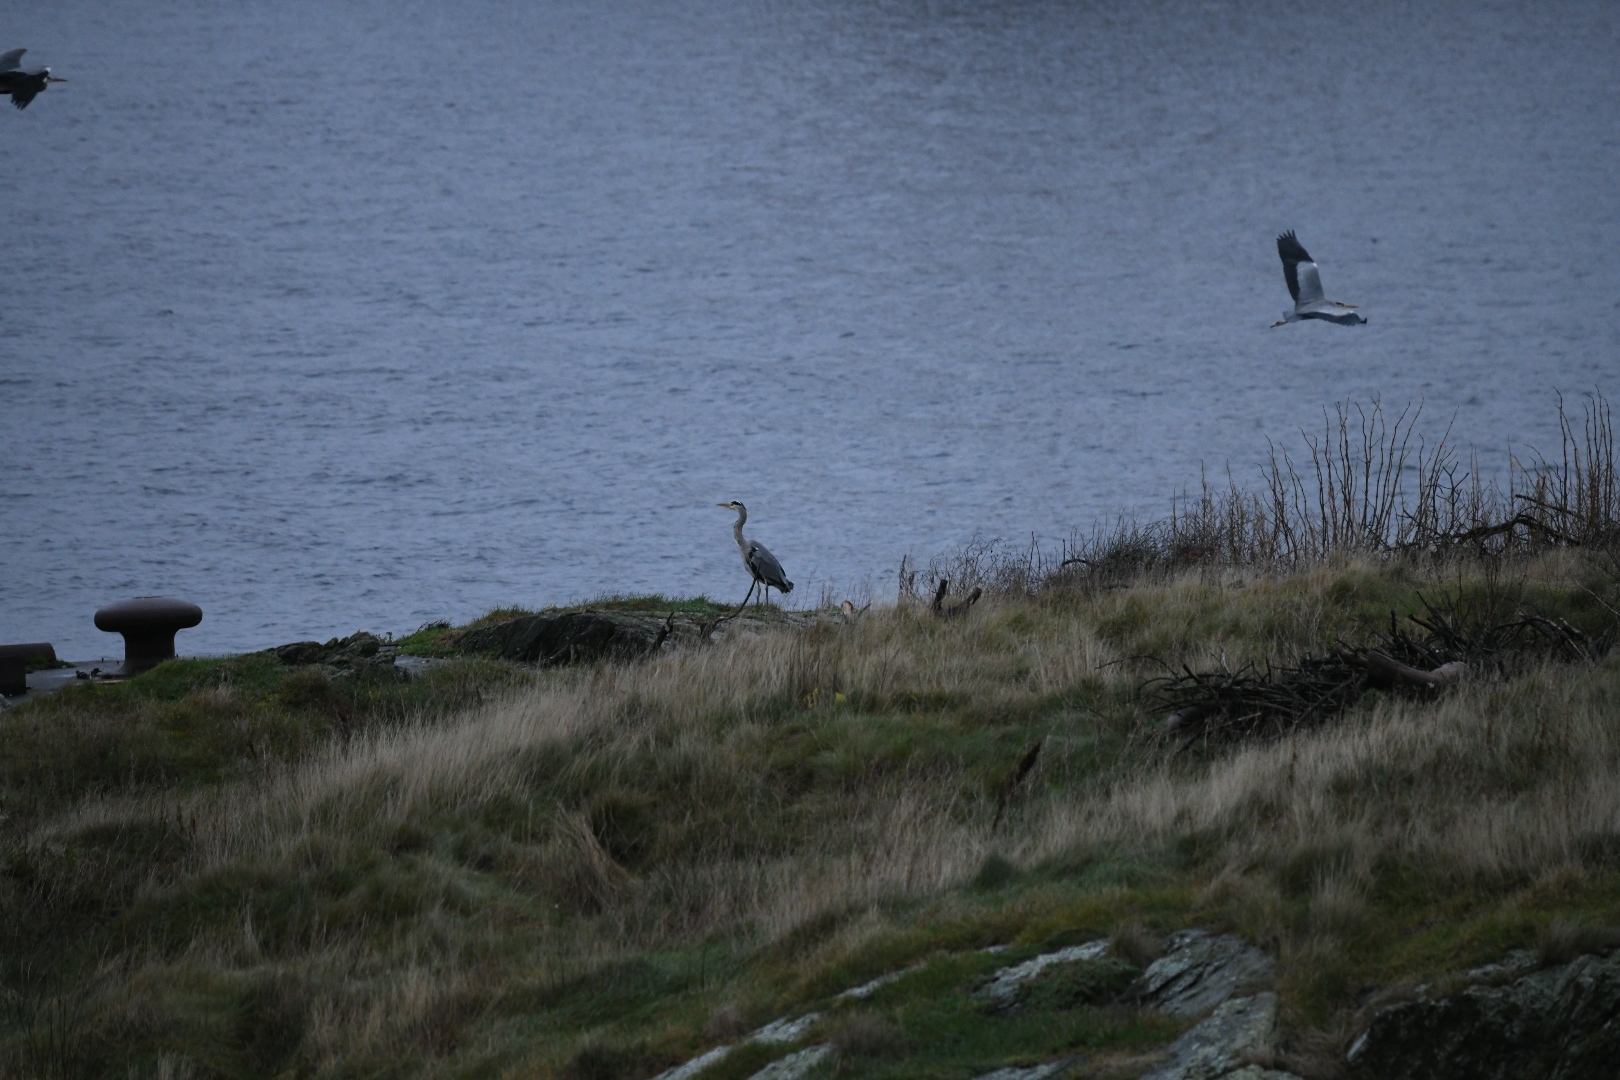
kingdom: Animalia
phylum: Chordata
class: Aves
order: Pelecaniformes
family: Ardeidae
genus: Ardea
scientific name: Ardea cinerea
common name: Grey heron
